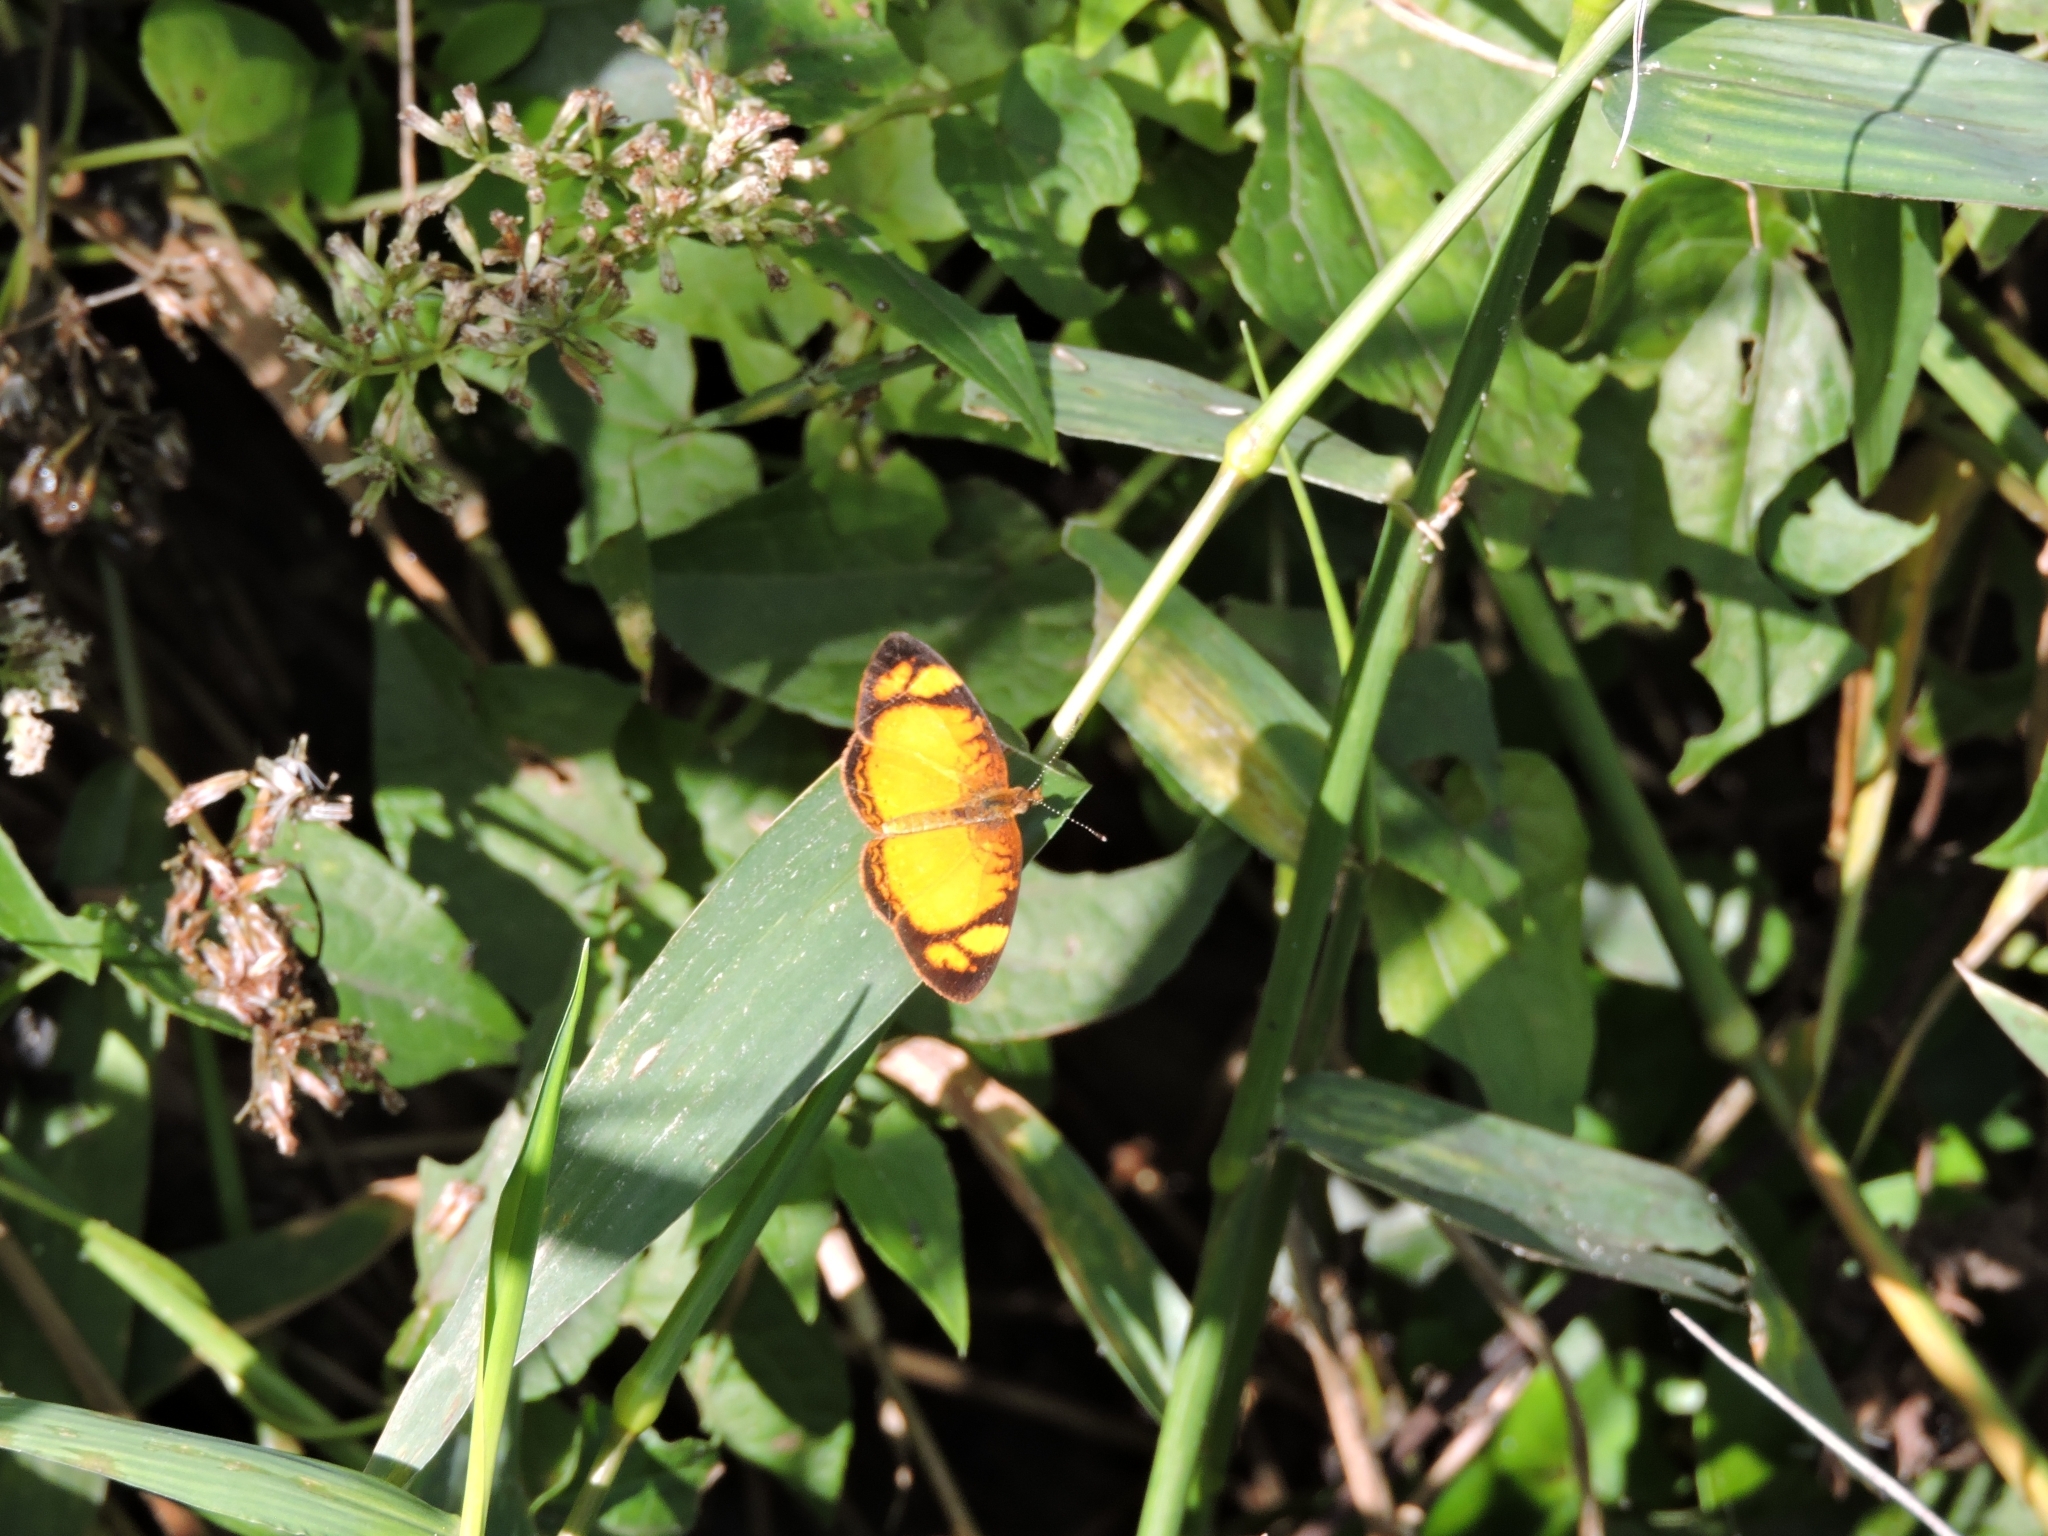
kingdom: Animalia
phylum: Arthropoda
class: Insecta
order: Lepidoptera
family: Nymphalidae
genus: Tegosa
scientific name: Tegosa claudina
